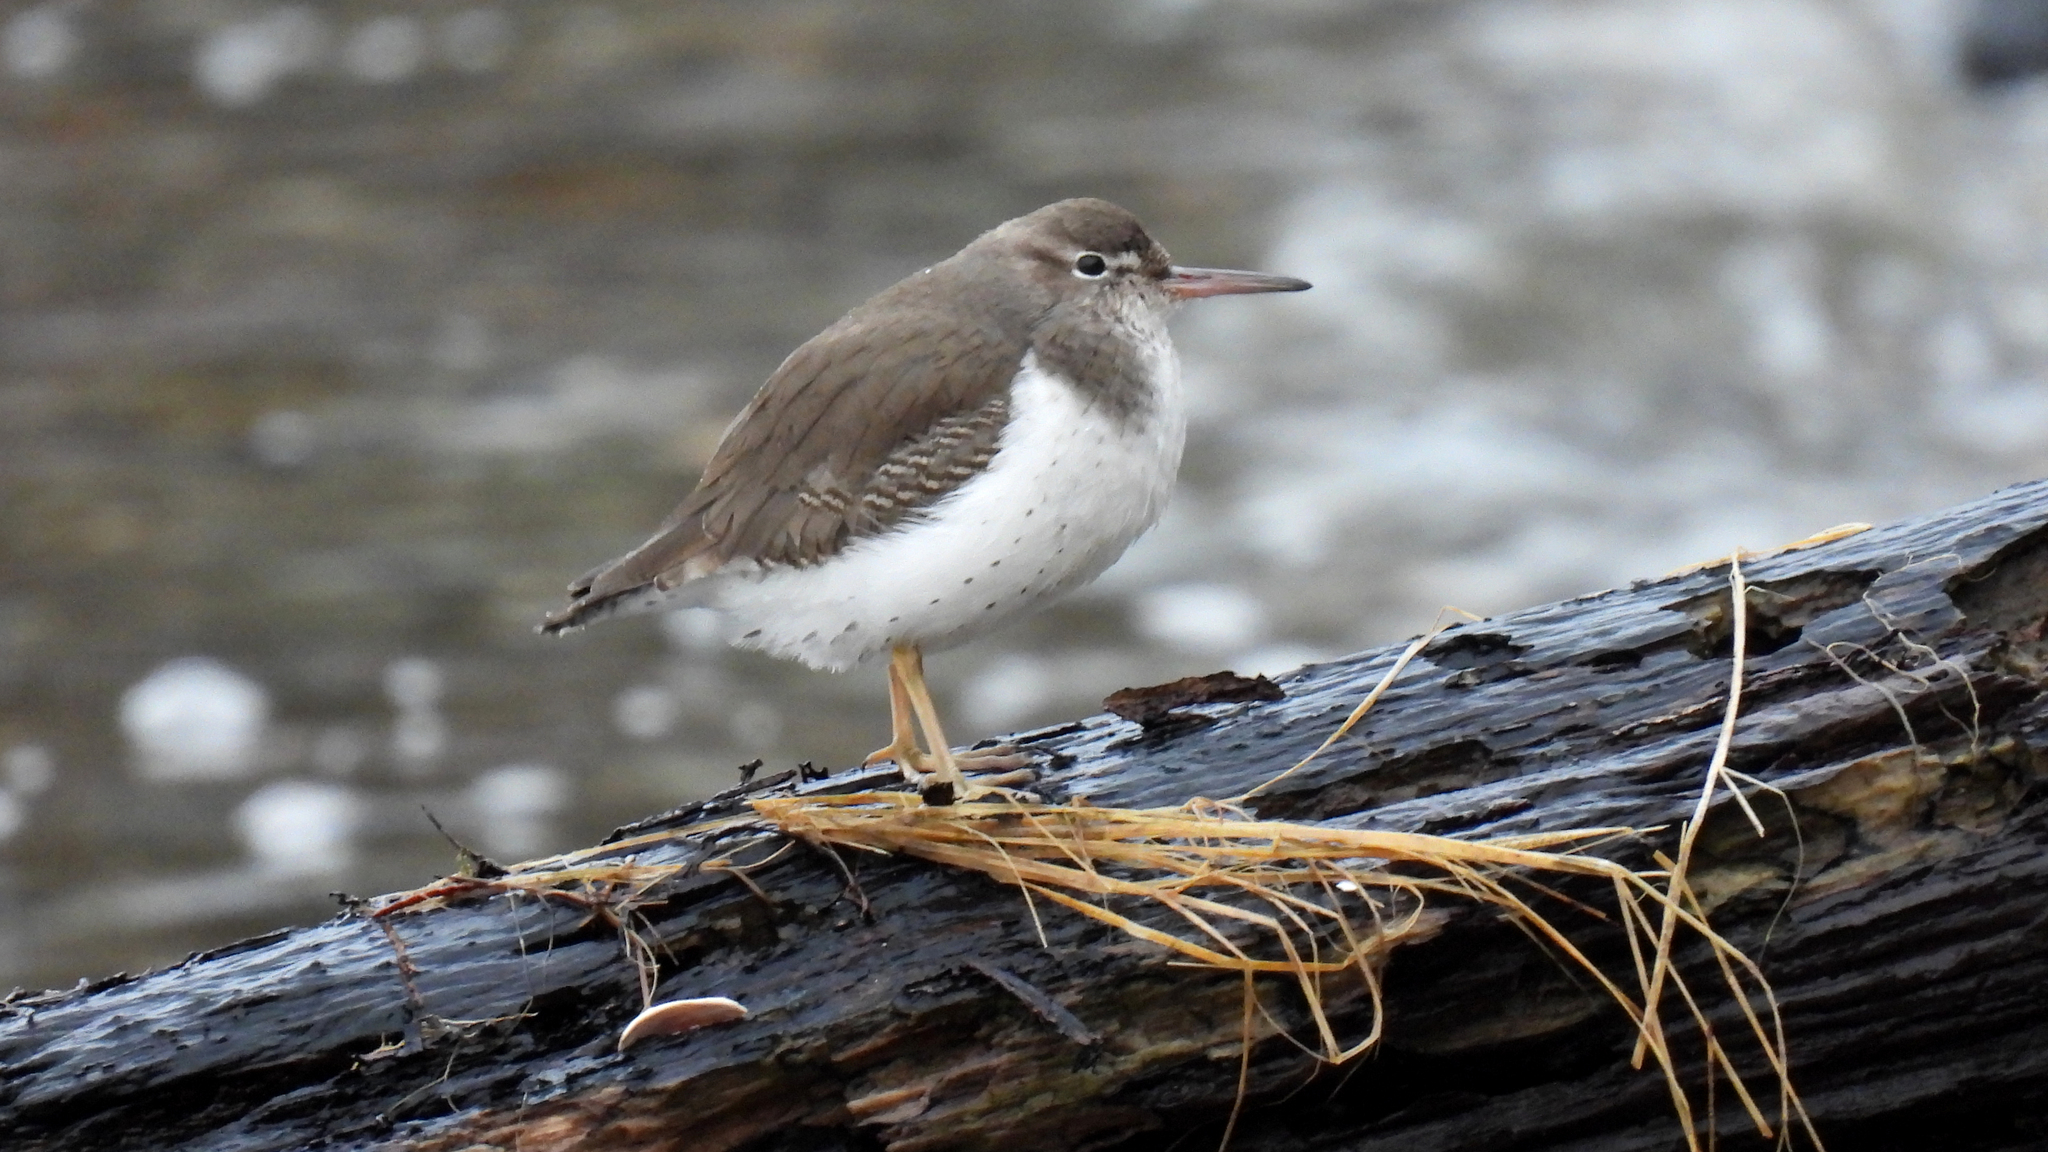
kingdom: Animalia
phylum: Chordata
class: Aves
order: Charadriiformes
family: Scolopacidae
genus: Actitis
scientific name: Actitis macularius
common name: Spotted sandpiper
